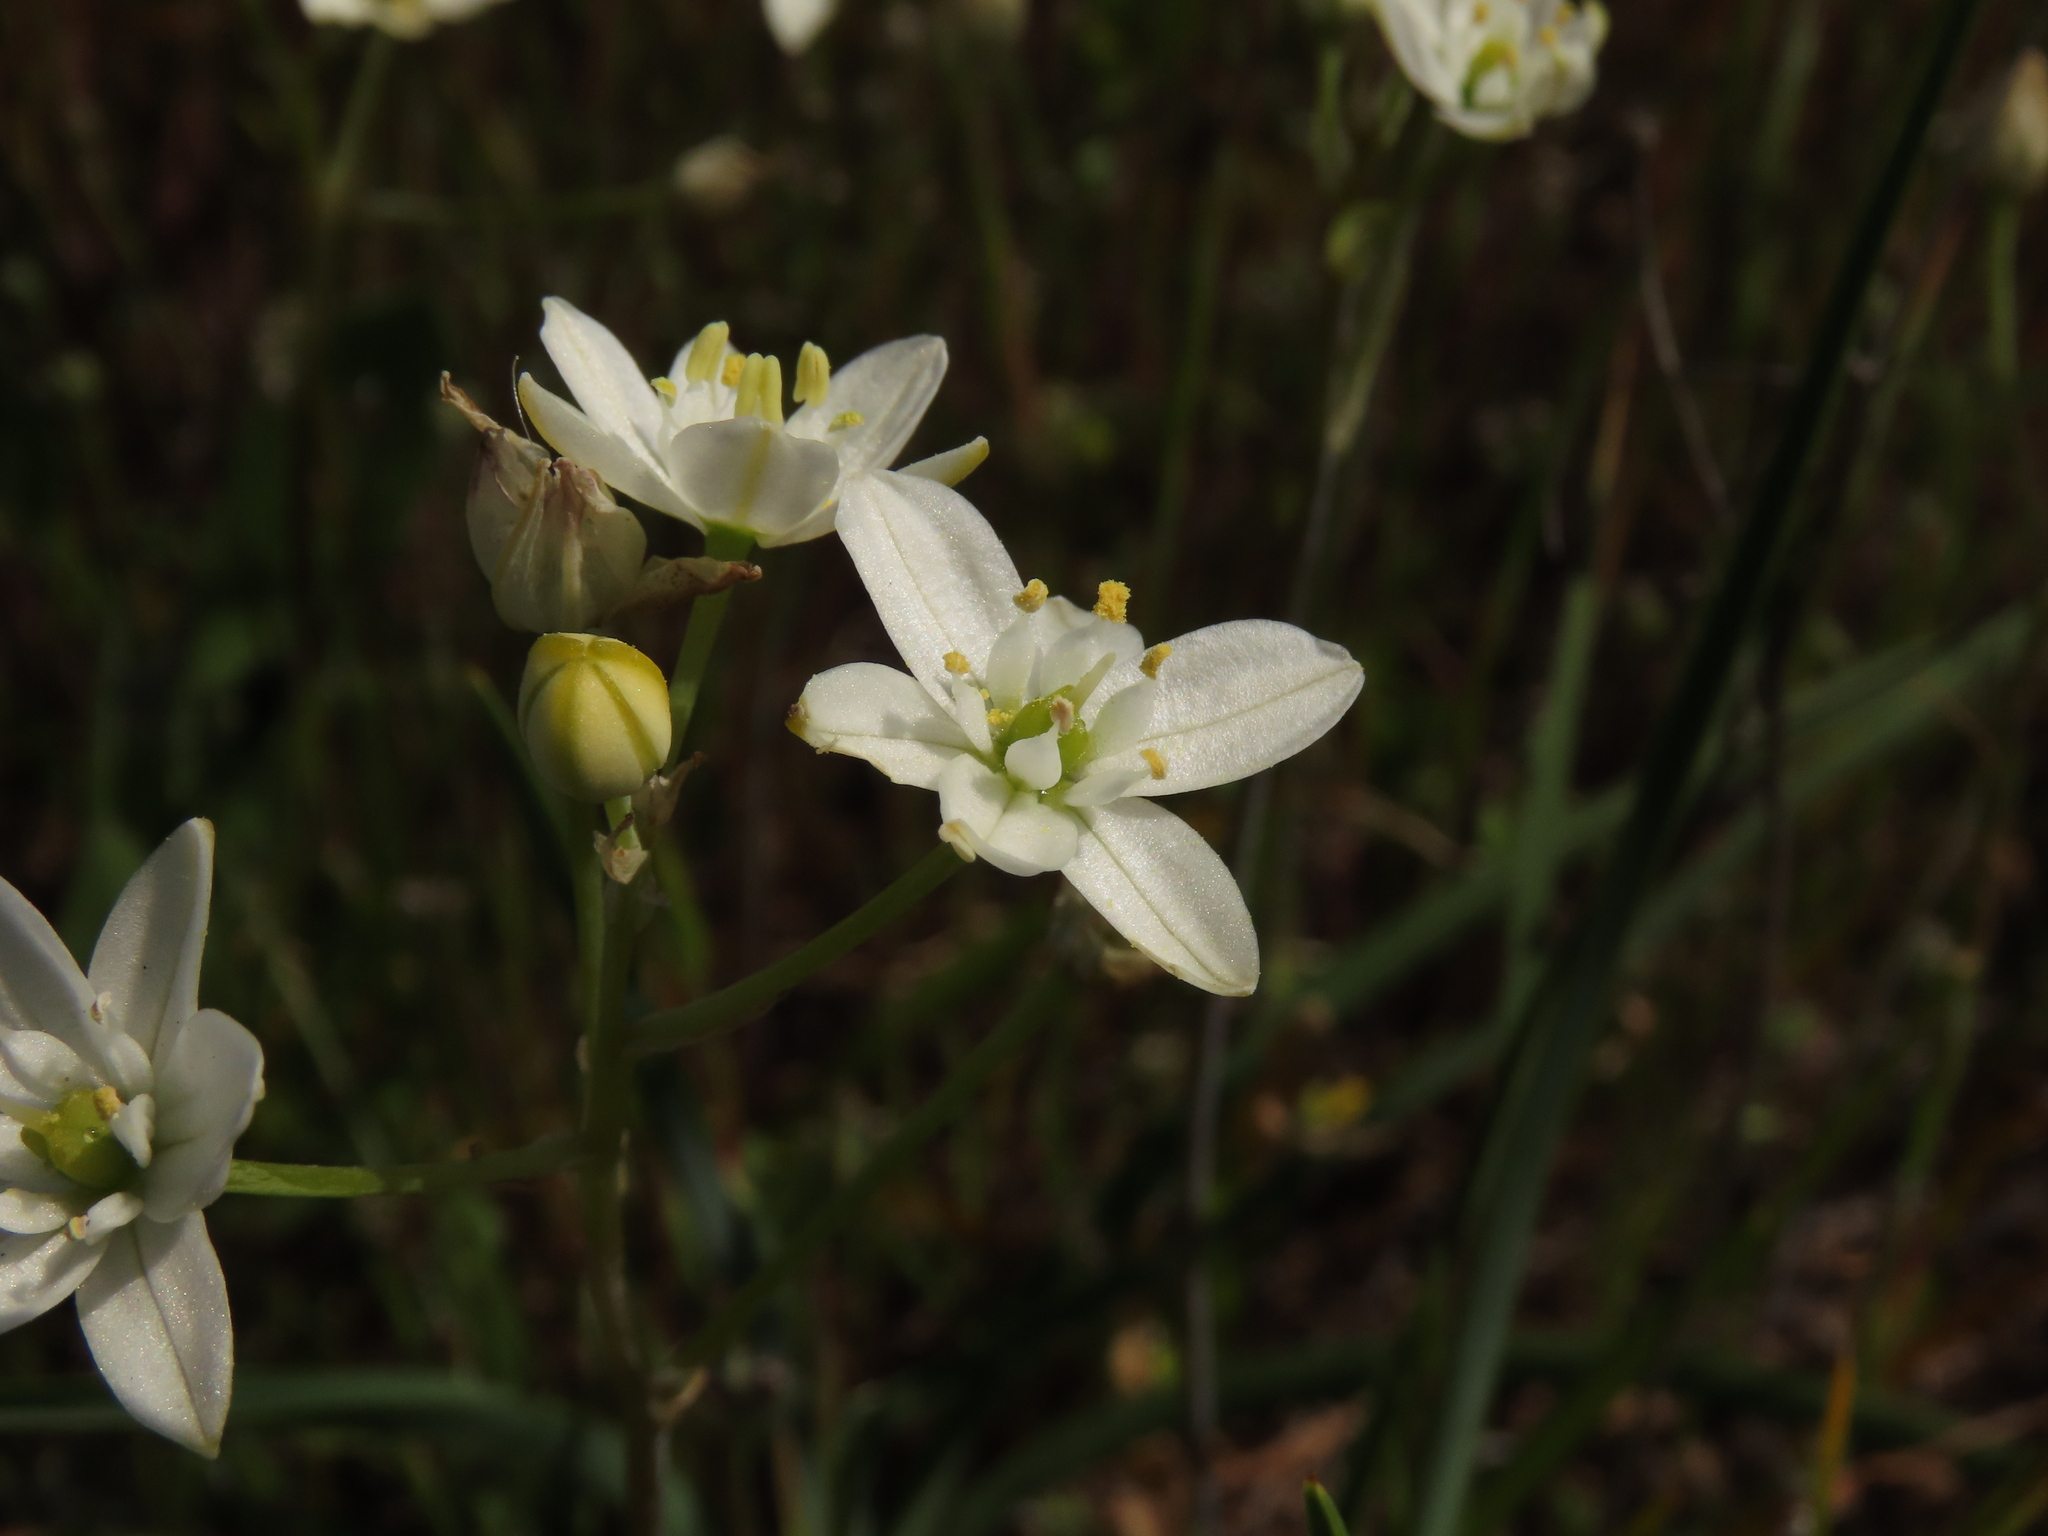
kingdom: Plantae
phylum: Tracheophyta
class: Liliopsida
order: Asparagales
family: Asparagaceae
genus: Oziroe
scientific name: Oziroe arida
